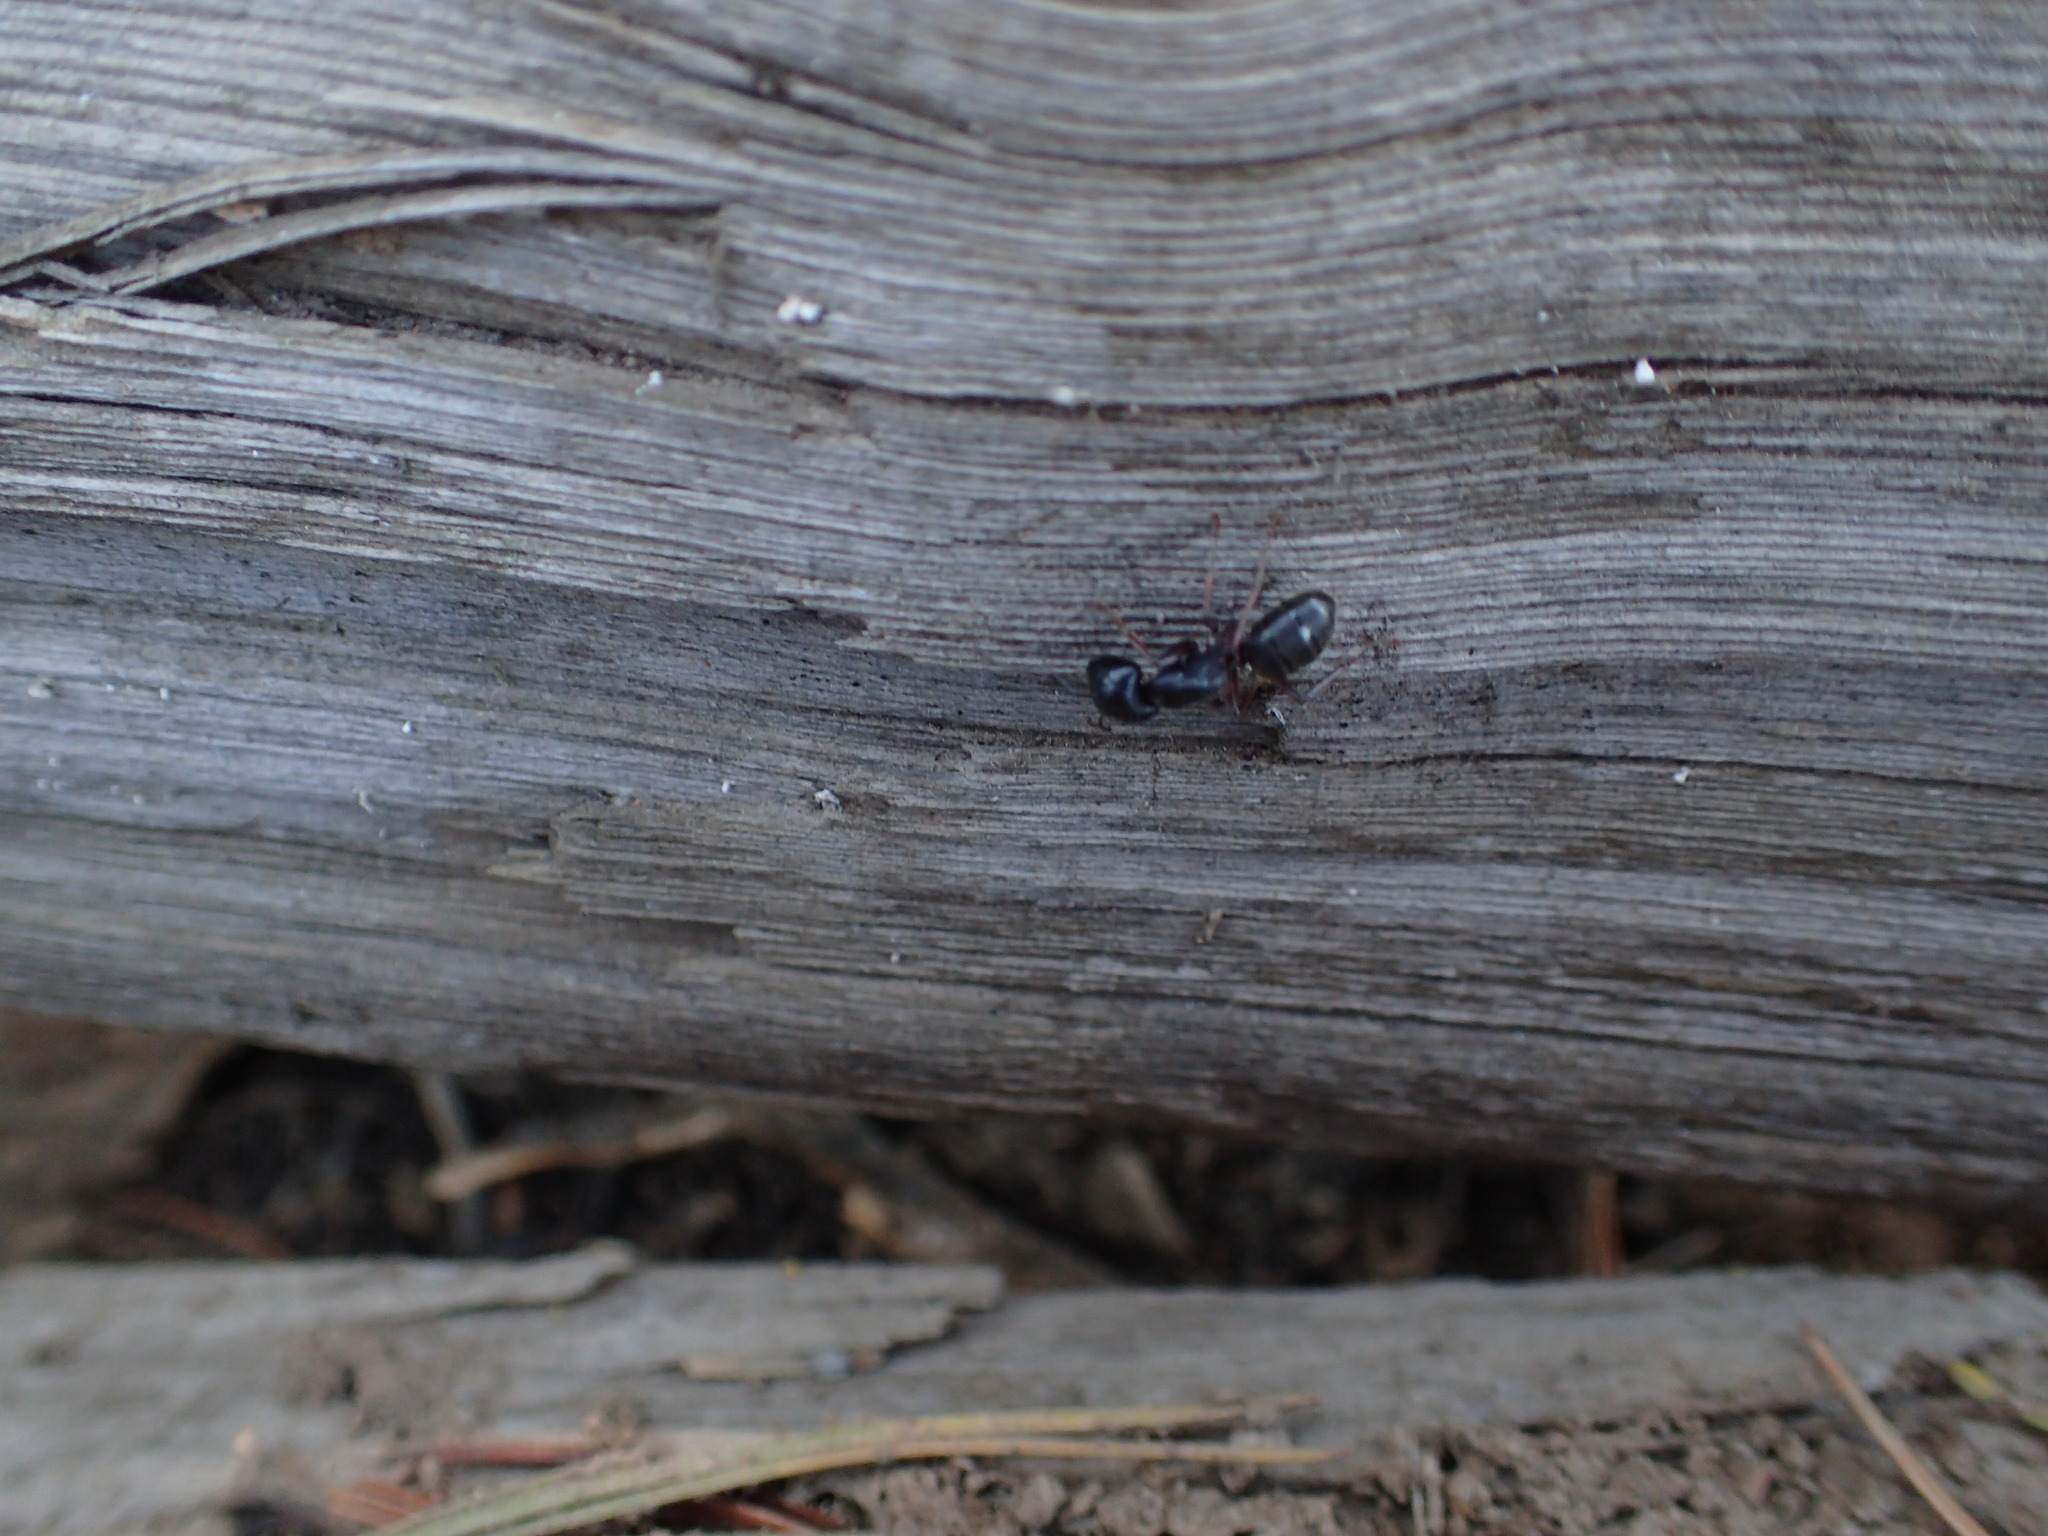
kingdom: Animalia
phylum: Arthropoda
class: Insecta
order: Hymenoptera
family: Formicidae
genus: Camponotus
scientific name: Camponotus modoc
